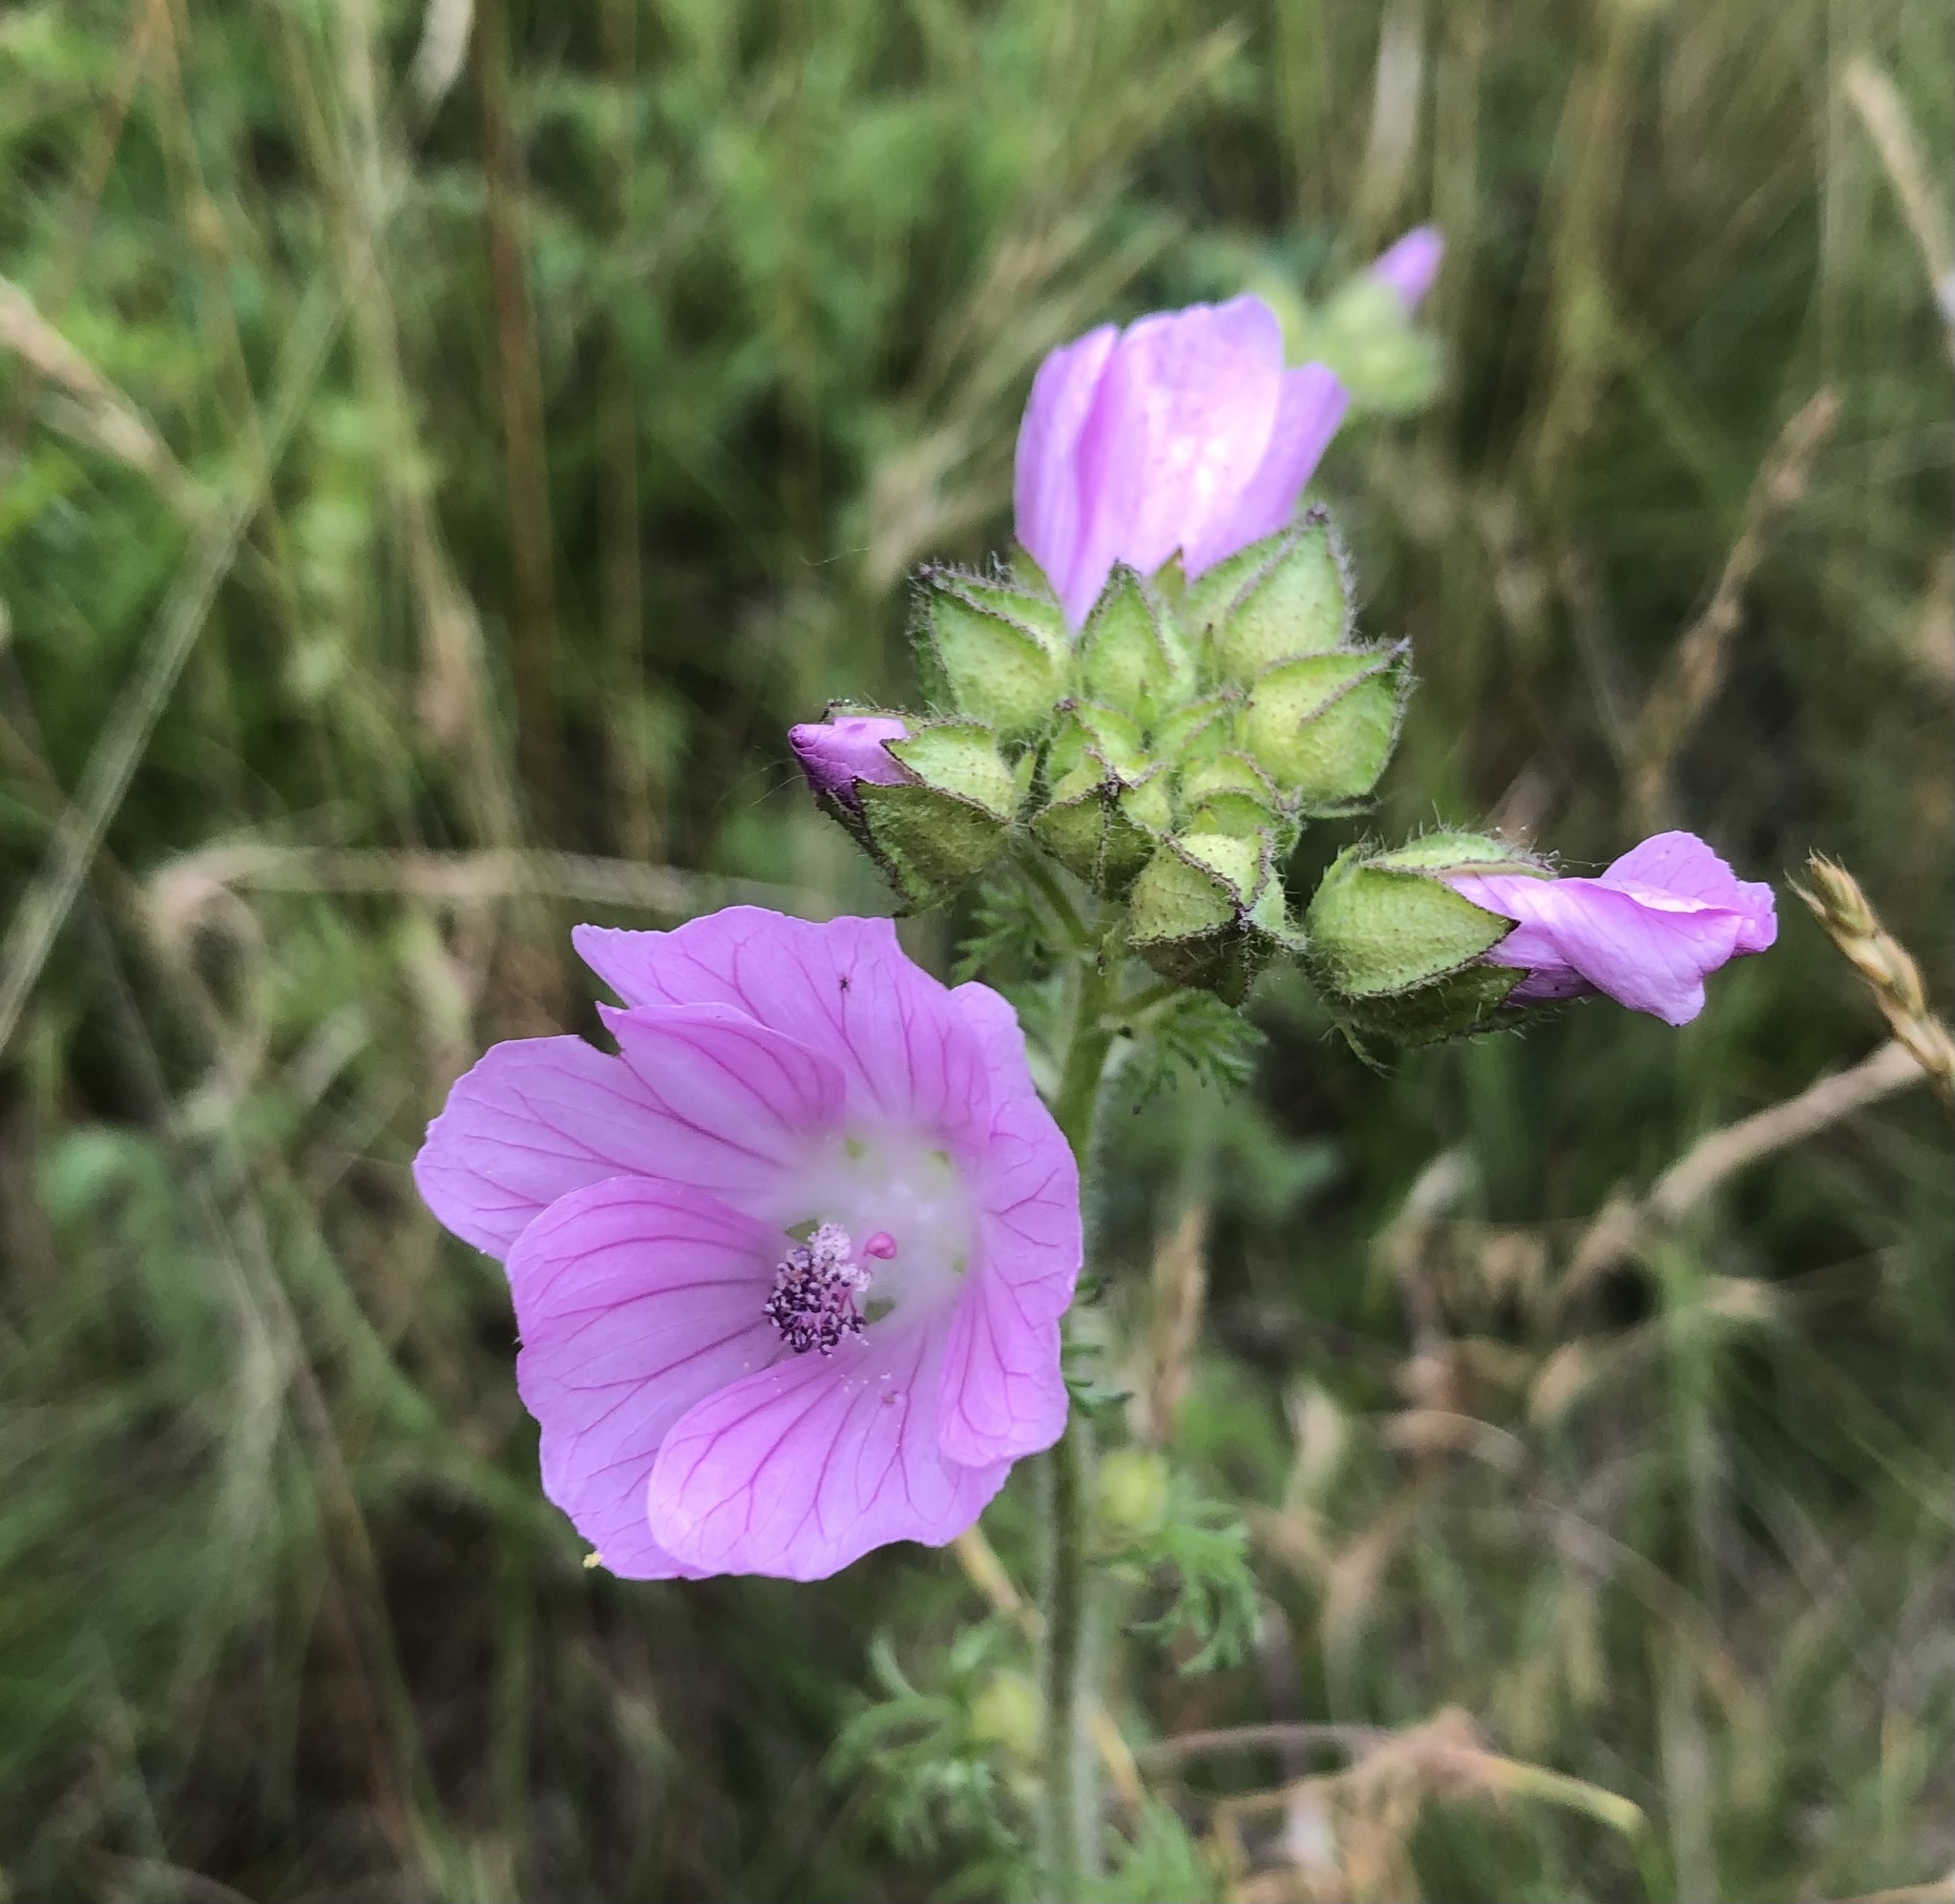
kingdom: Plantae
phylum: Tracheophyta
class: Magnoliopsida
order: Malvales
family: Malvaceae
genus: Malva
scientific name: Malva moschata
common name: Musk mallow
